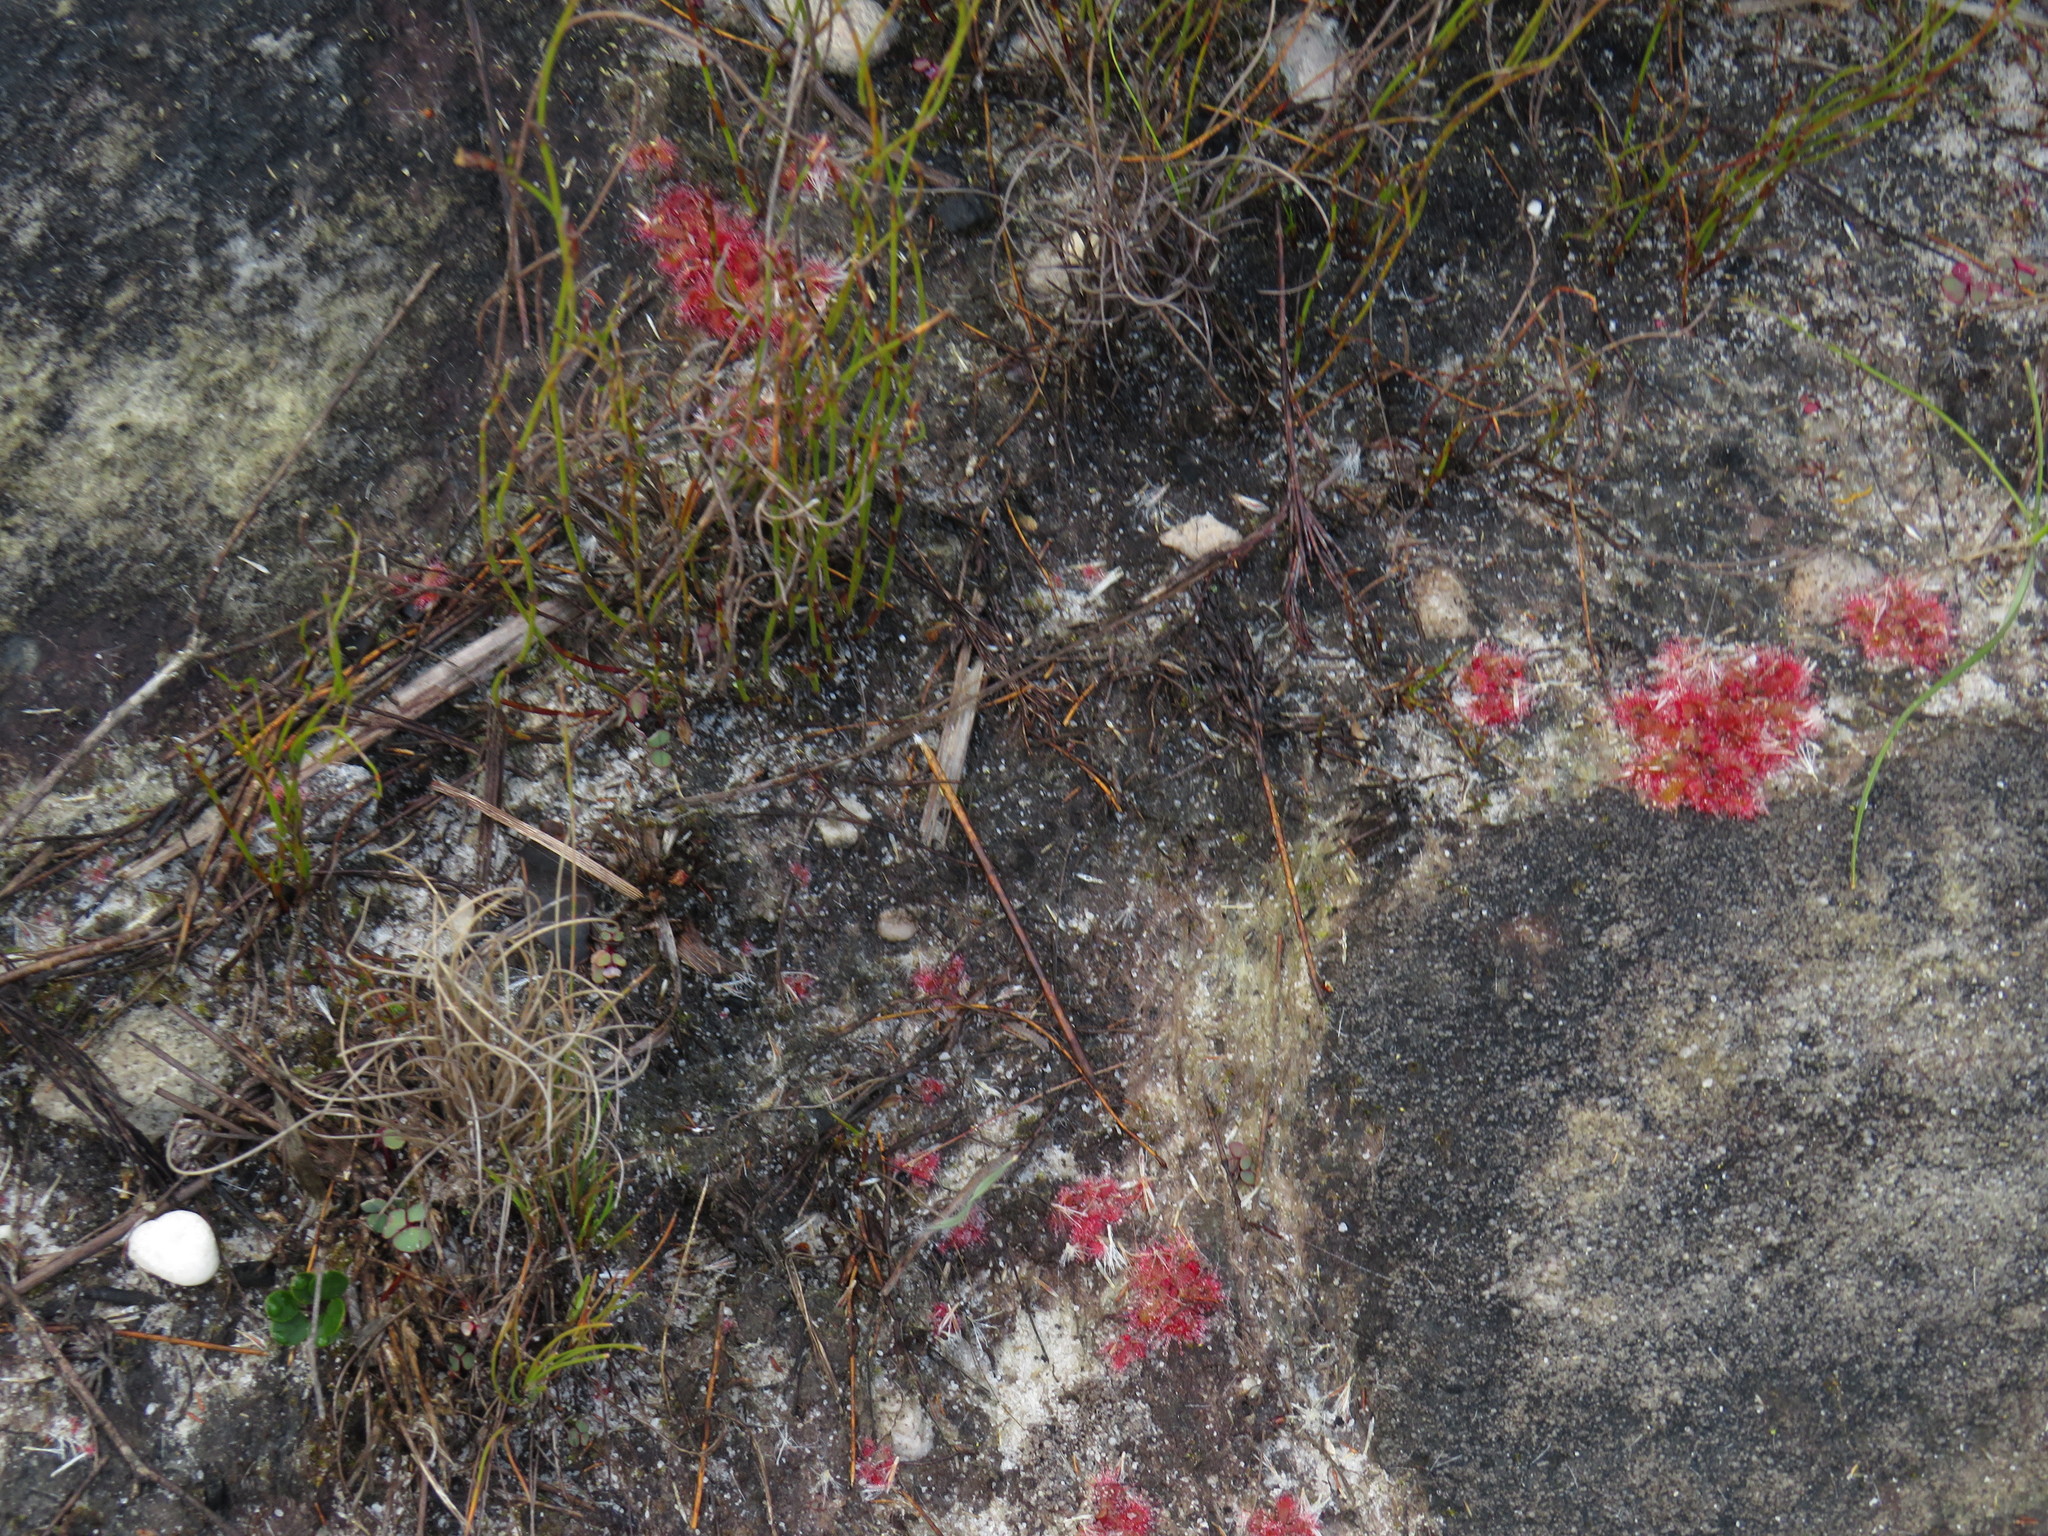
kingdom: Plantae
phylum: Tracheophyta
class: Magnoliopsida
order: Caryophyllales
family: Droseraceae
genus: Drosera
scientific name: Drosera trinervia
